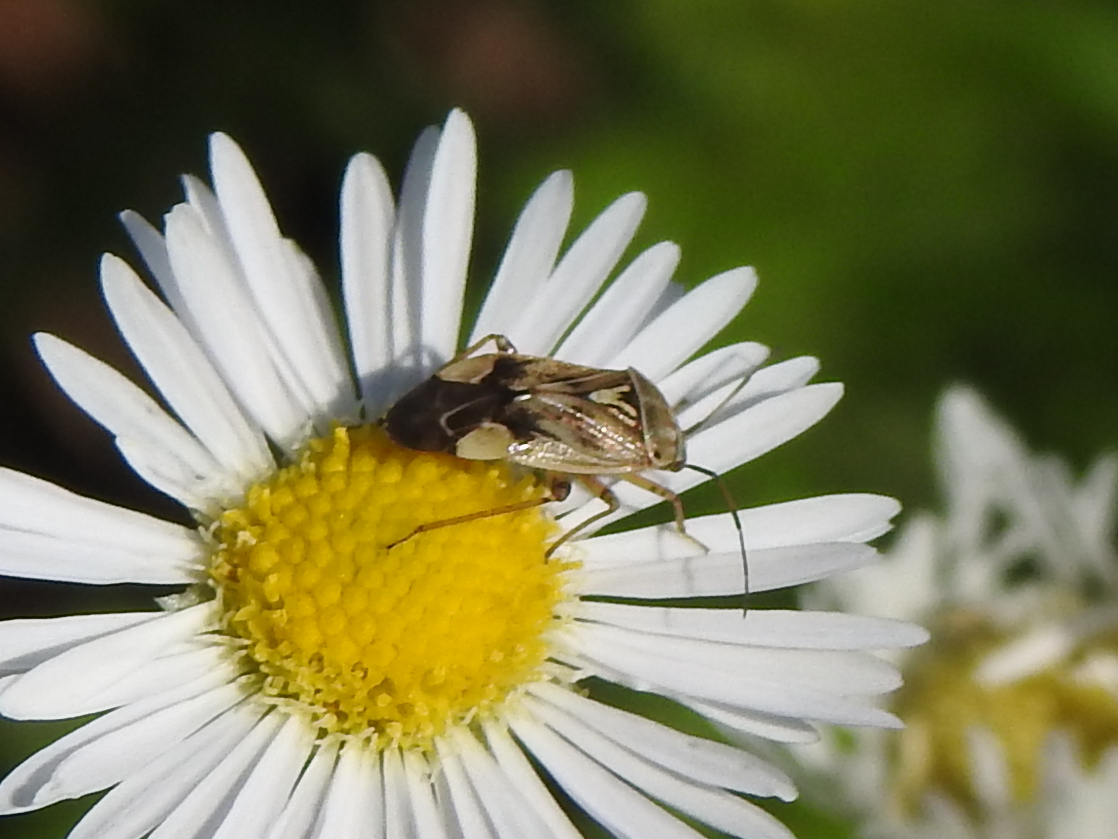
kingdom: Animalia
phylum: Arthropoda
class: Insecta
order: Hemiptera
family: Miridae
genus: Lygus
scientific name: Lygus lineolaris
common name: North american tarnished plant bug
